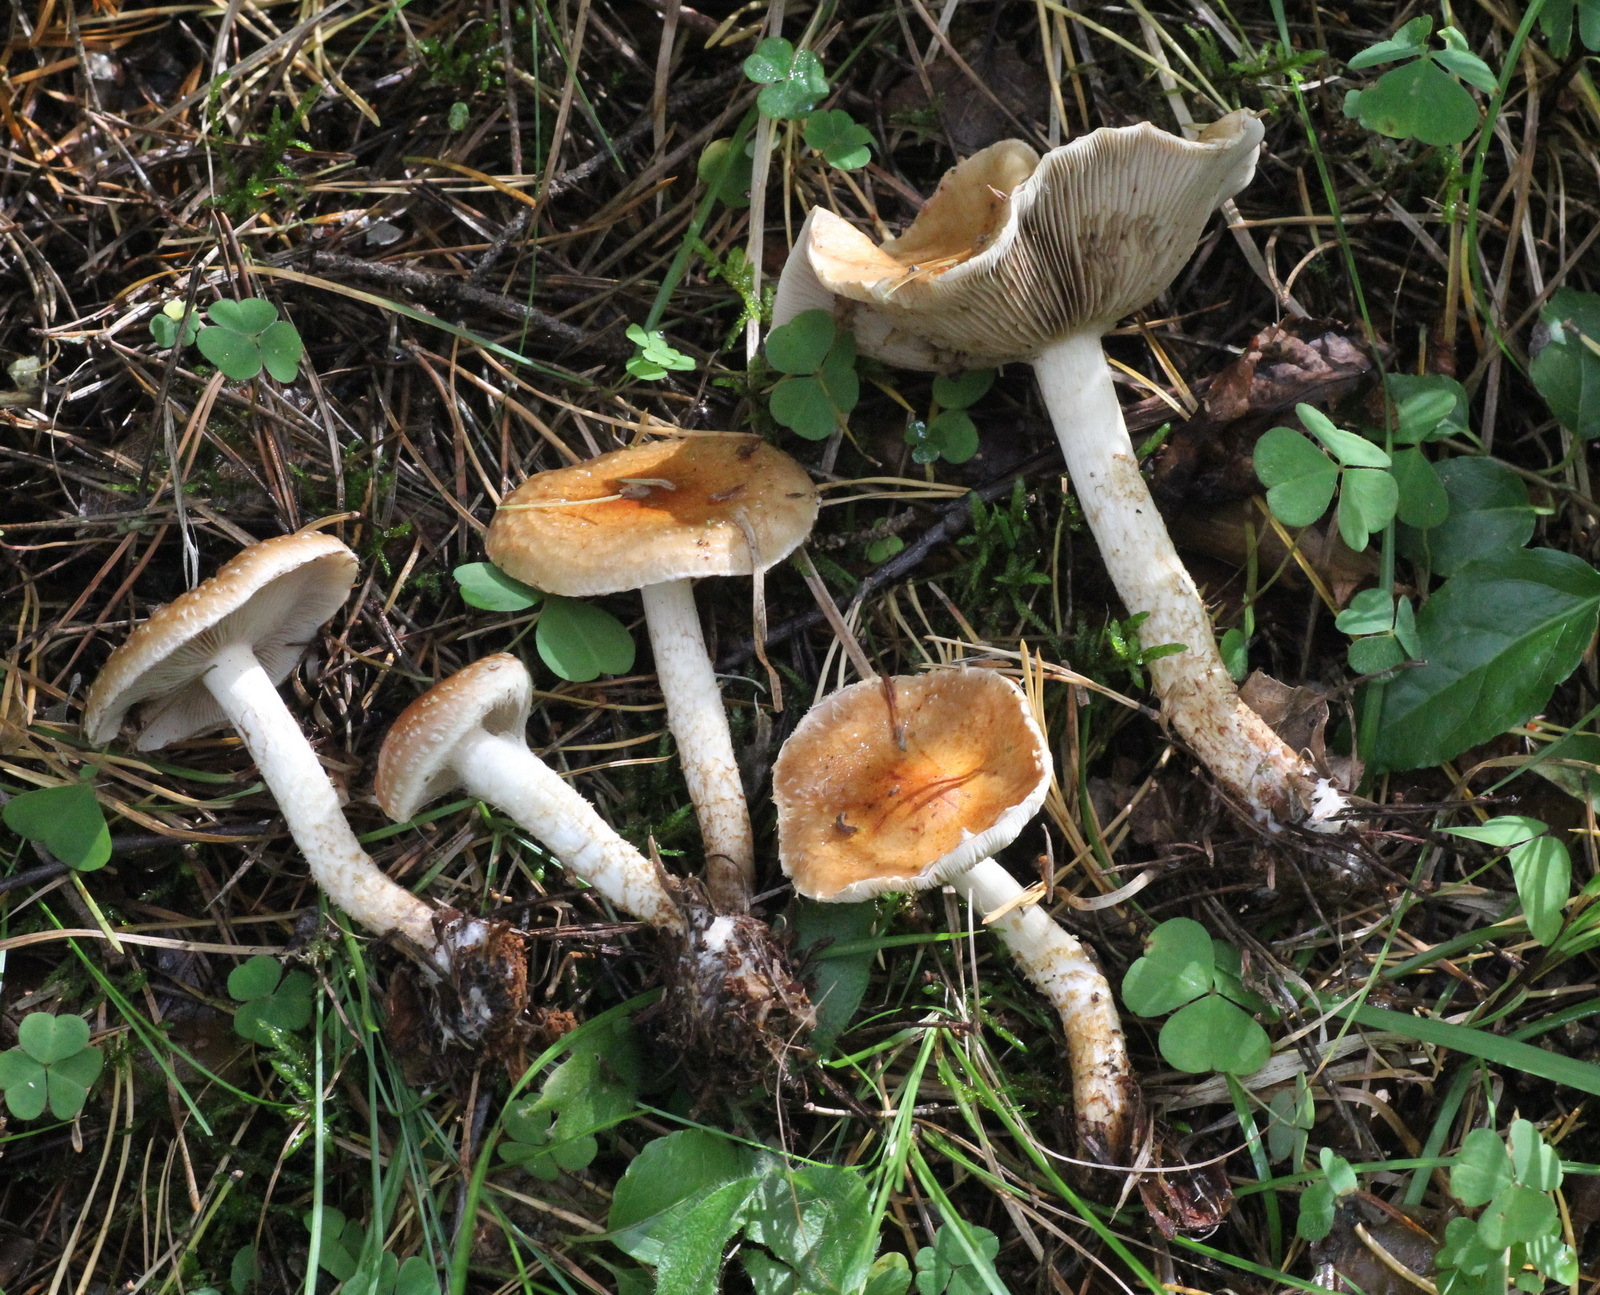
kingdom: Fungi
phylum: Basidiomycota
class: Agaricomycetes
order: Agaricales
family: Strophariaceae
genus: Pholiota
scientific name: Pholiota lubrica
